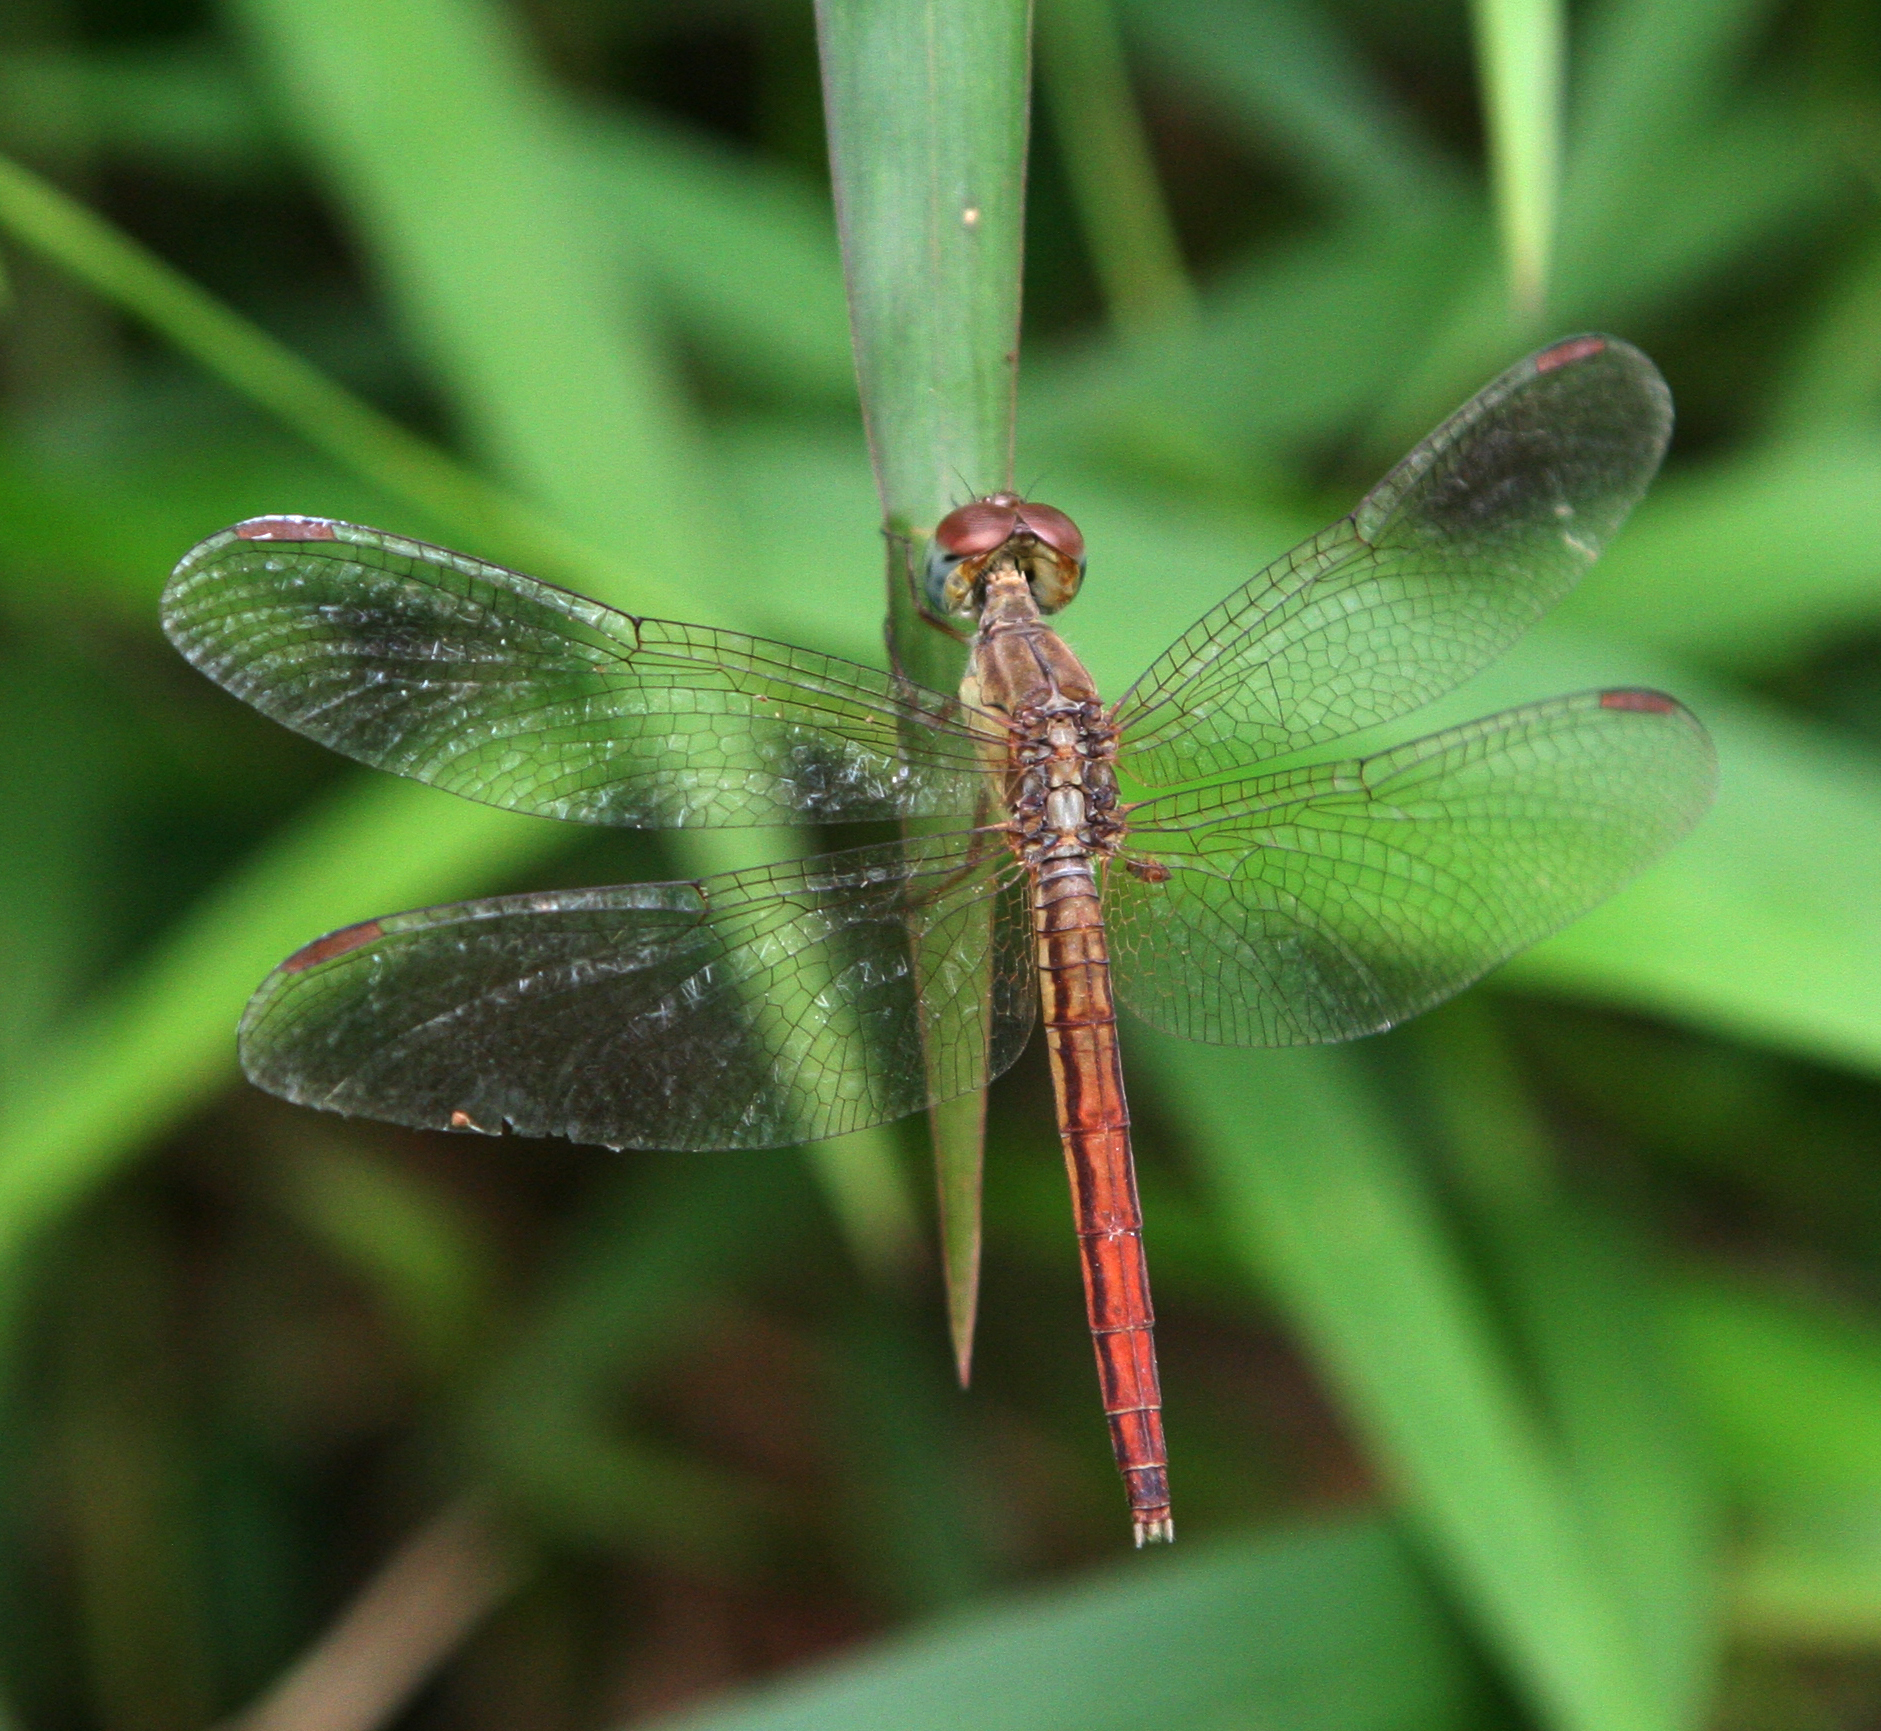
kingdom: Animalia
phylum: Arthropoda
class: Insecta
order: Odonata
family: Libellulidae
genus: Neurothemis
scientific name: Neurothemis intermedia
